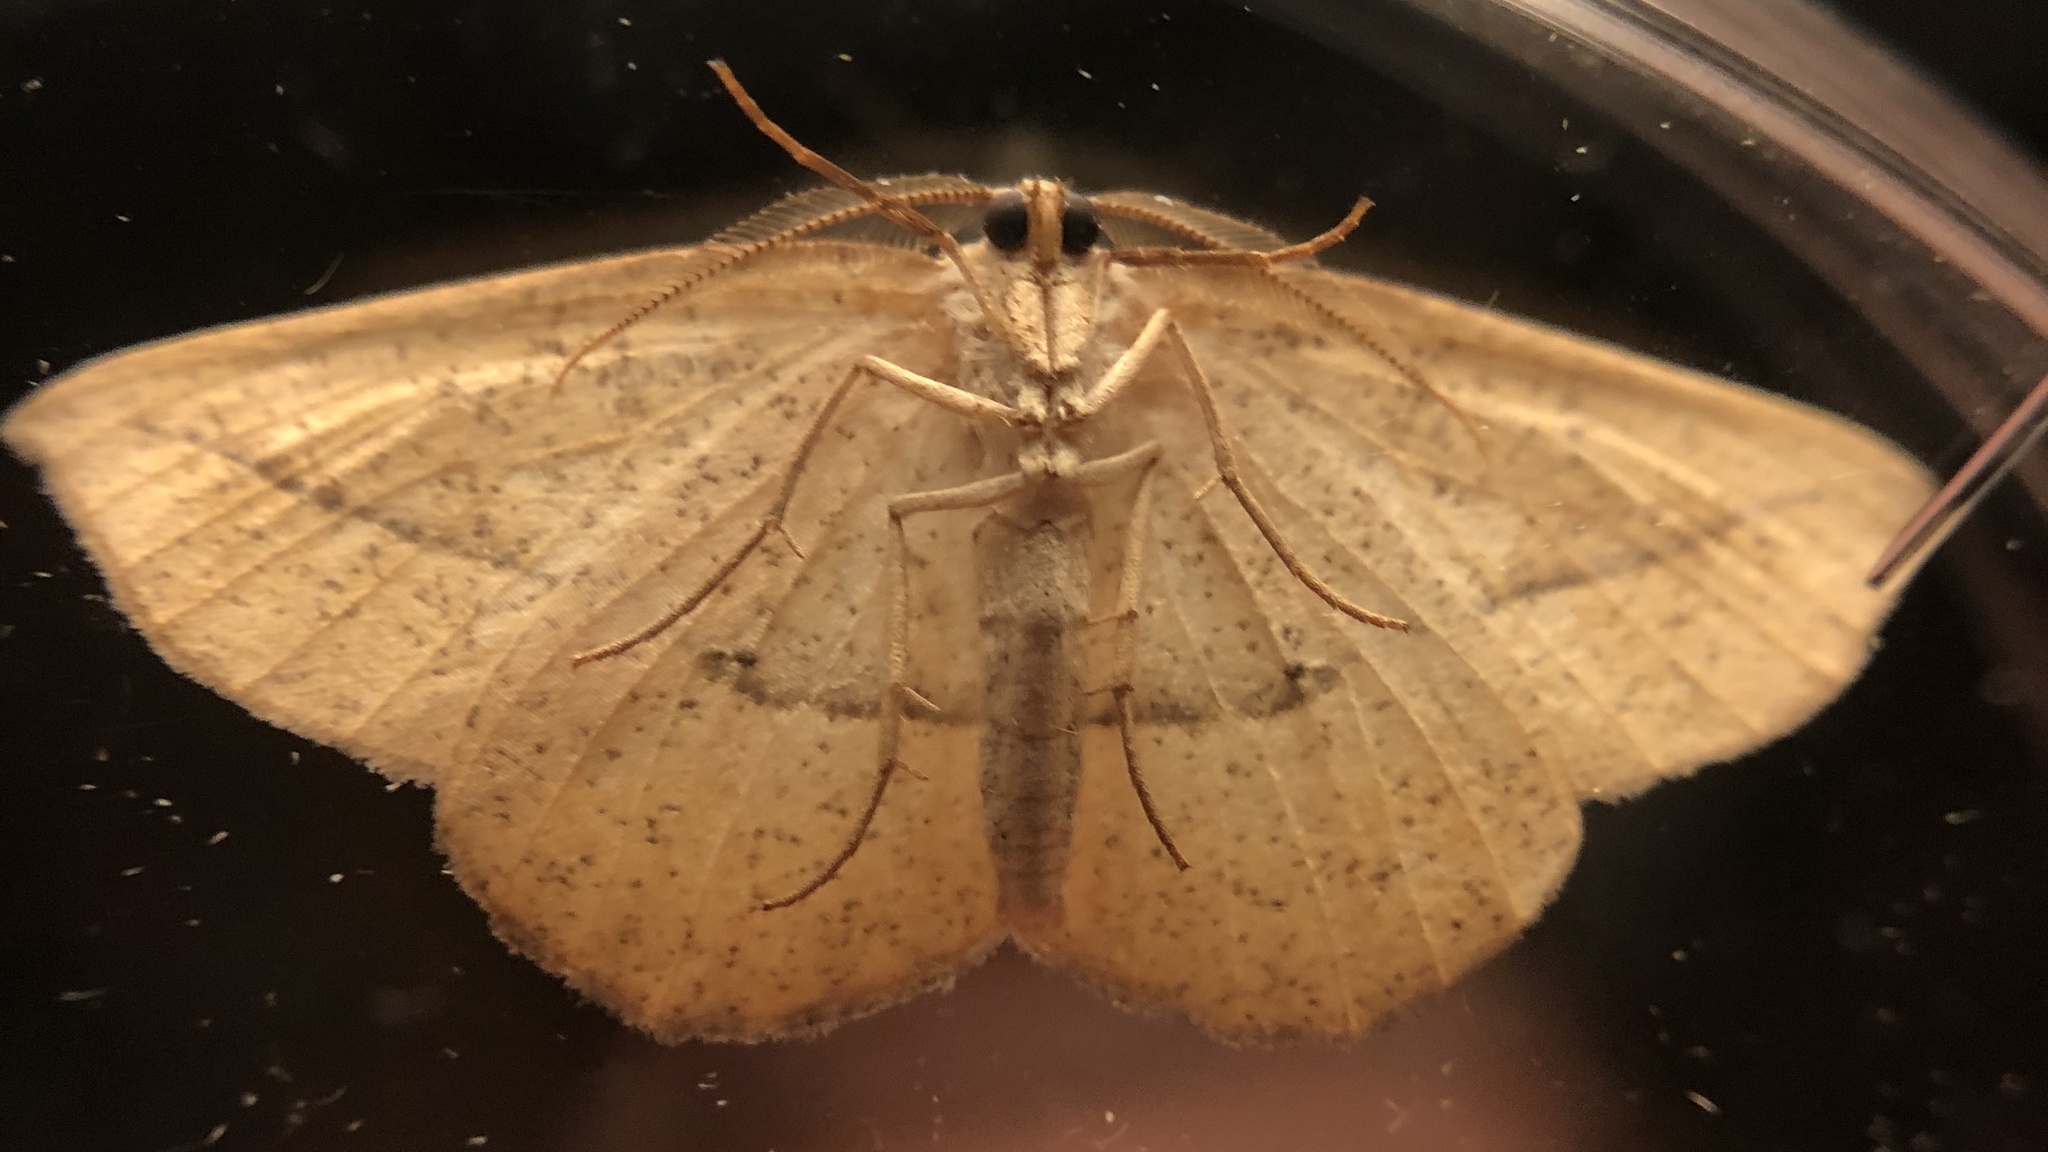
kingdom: Animalia
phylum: Arthropoda
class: Insecta
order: Lepidoptera
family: Geometridae
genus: Eusarca
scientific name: Eusarca confusaria
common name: Confused eusarca
